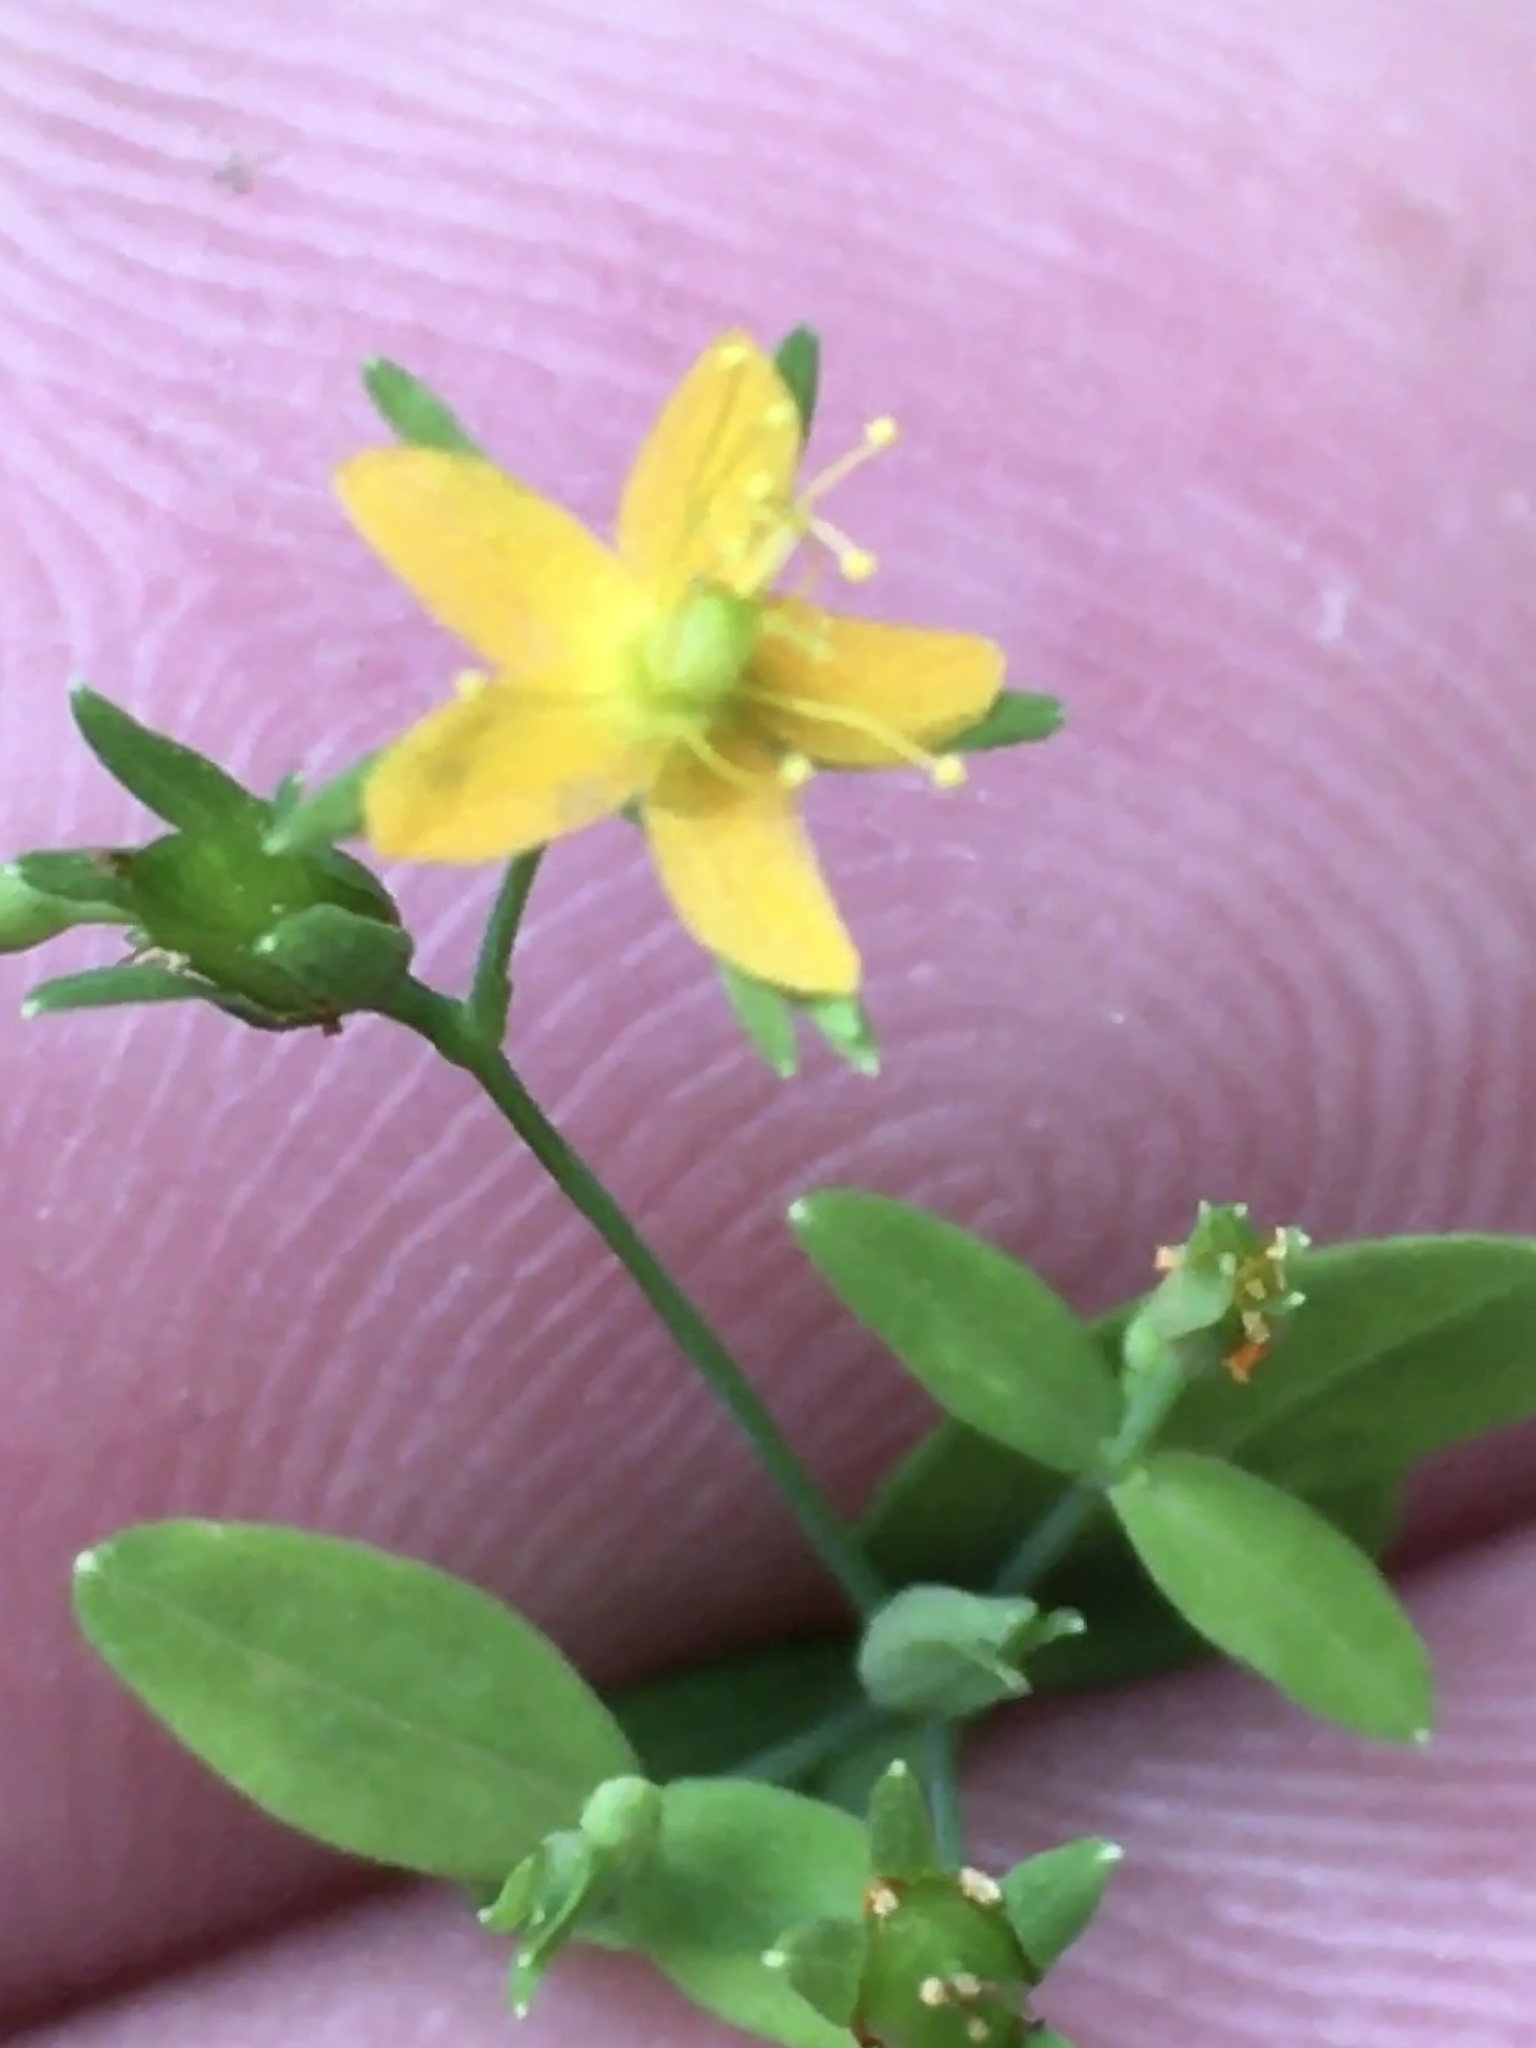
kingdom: Plantae
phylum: Tracheophyta
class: Magnoliopsida
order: Malpighiales
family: Hypericaceae
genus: Hypericum
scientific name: Hypericum mutilum
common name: Dwarf st. john's-wort
